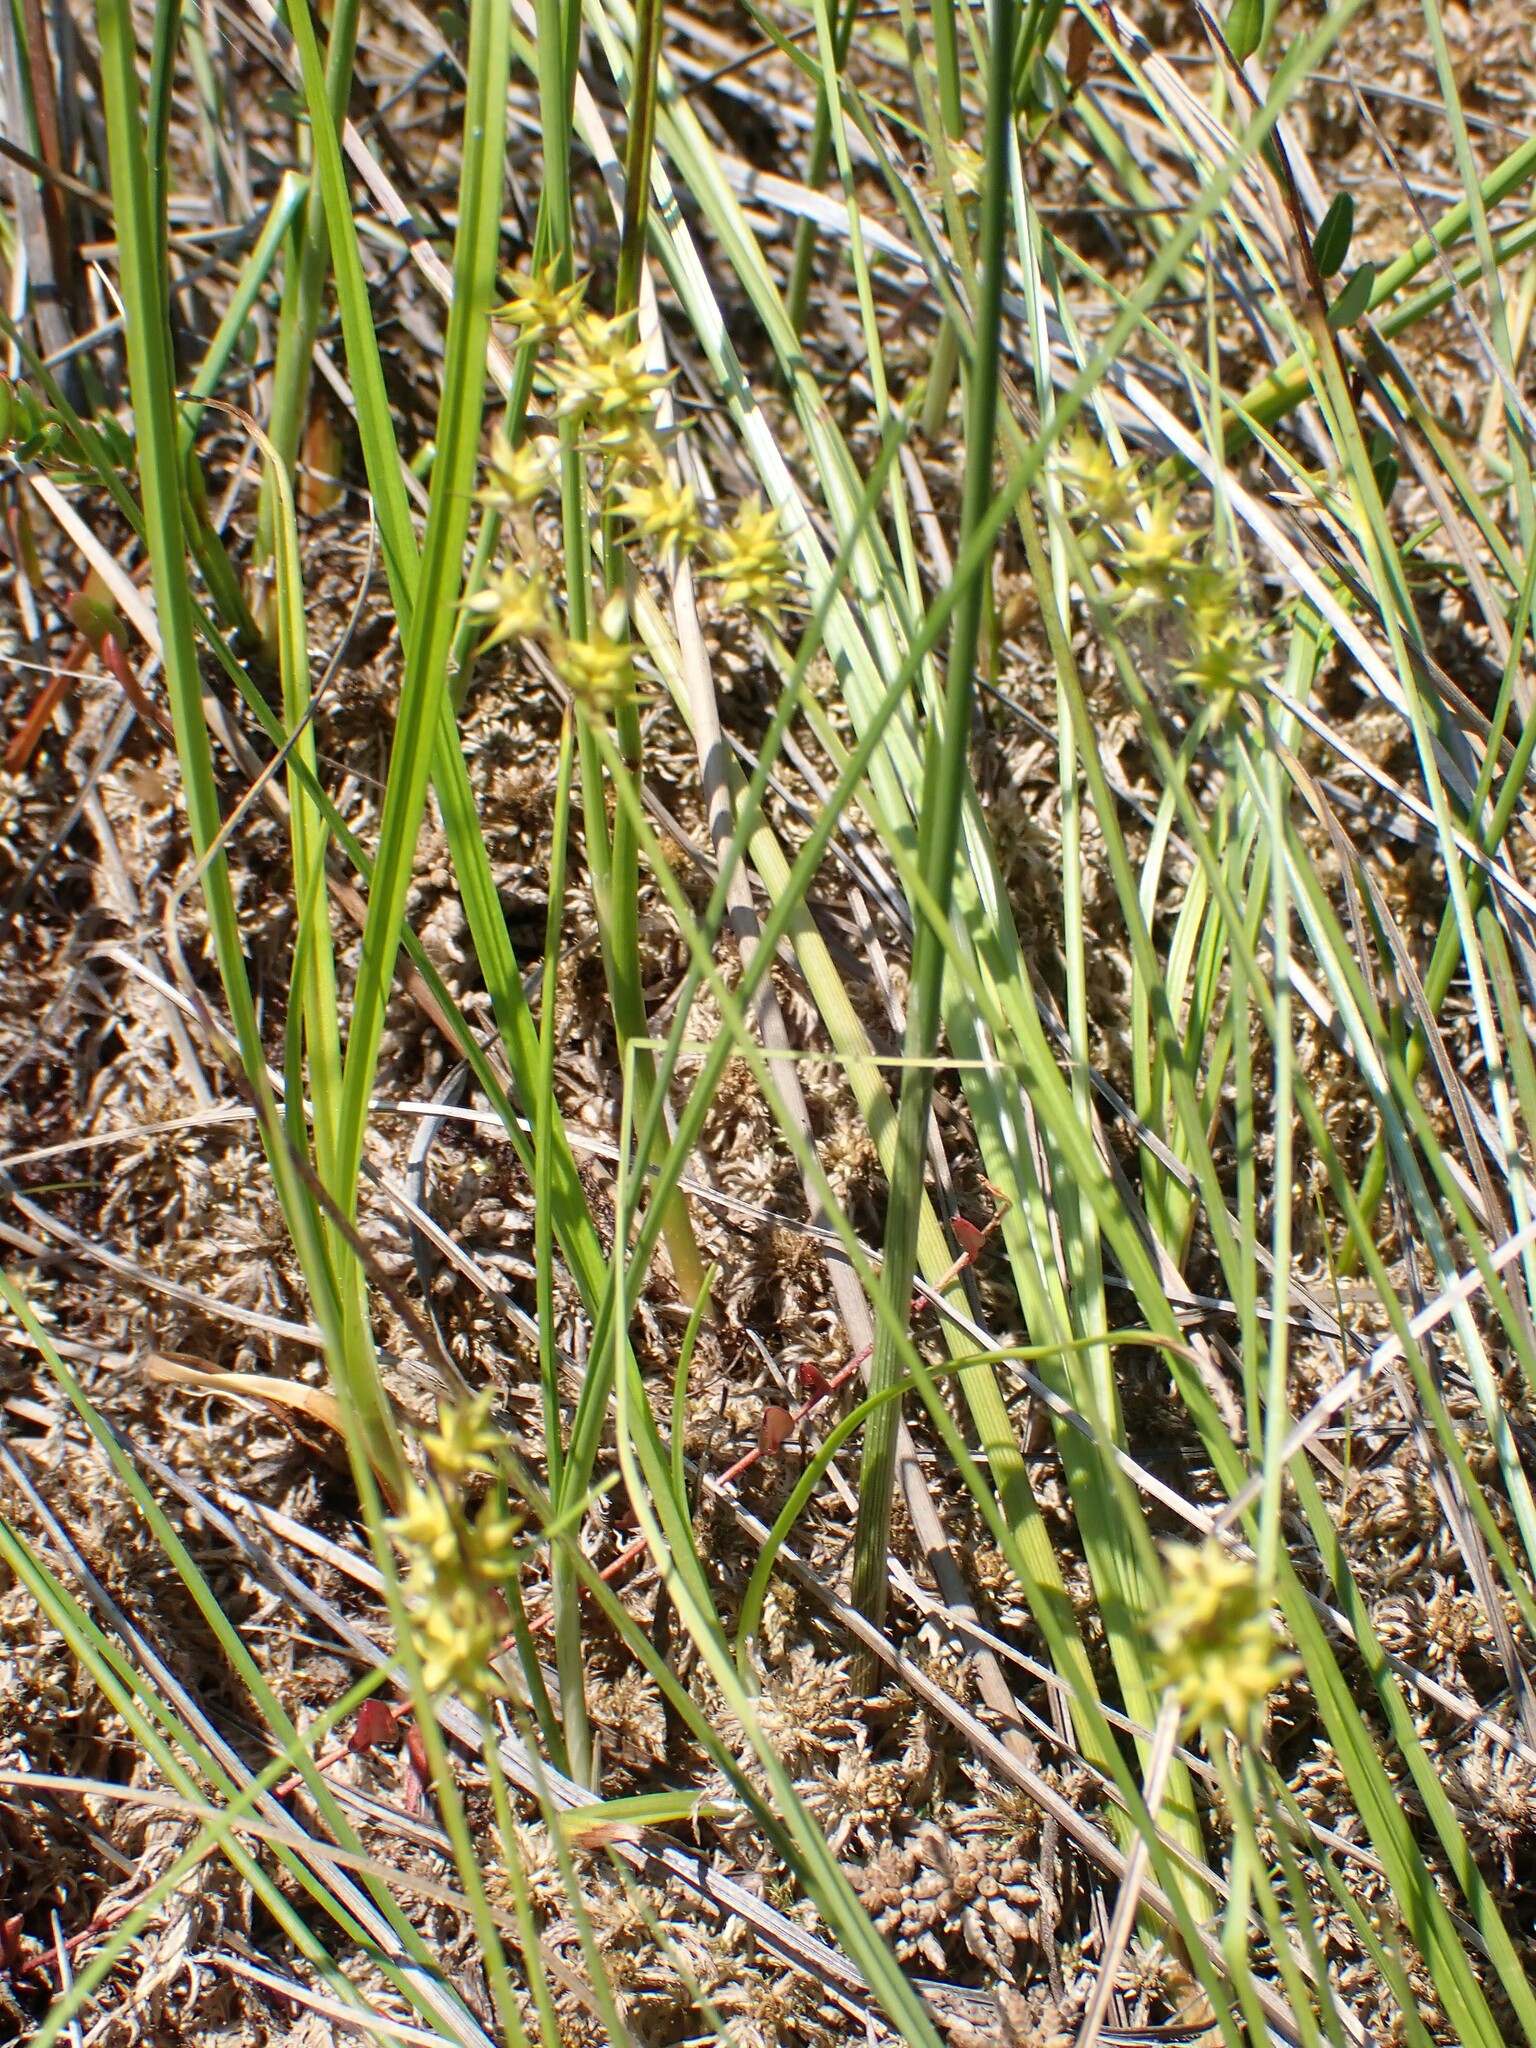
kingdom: Plantae
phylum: Tracheophyta
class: Liliopsida
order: Poales
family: Cyperaceae
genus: Carex
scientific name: Carex echinata
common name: Star sedge
